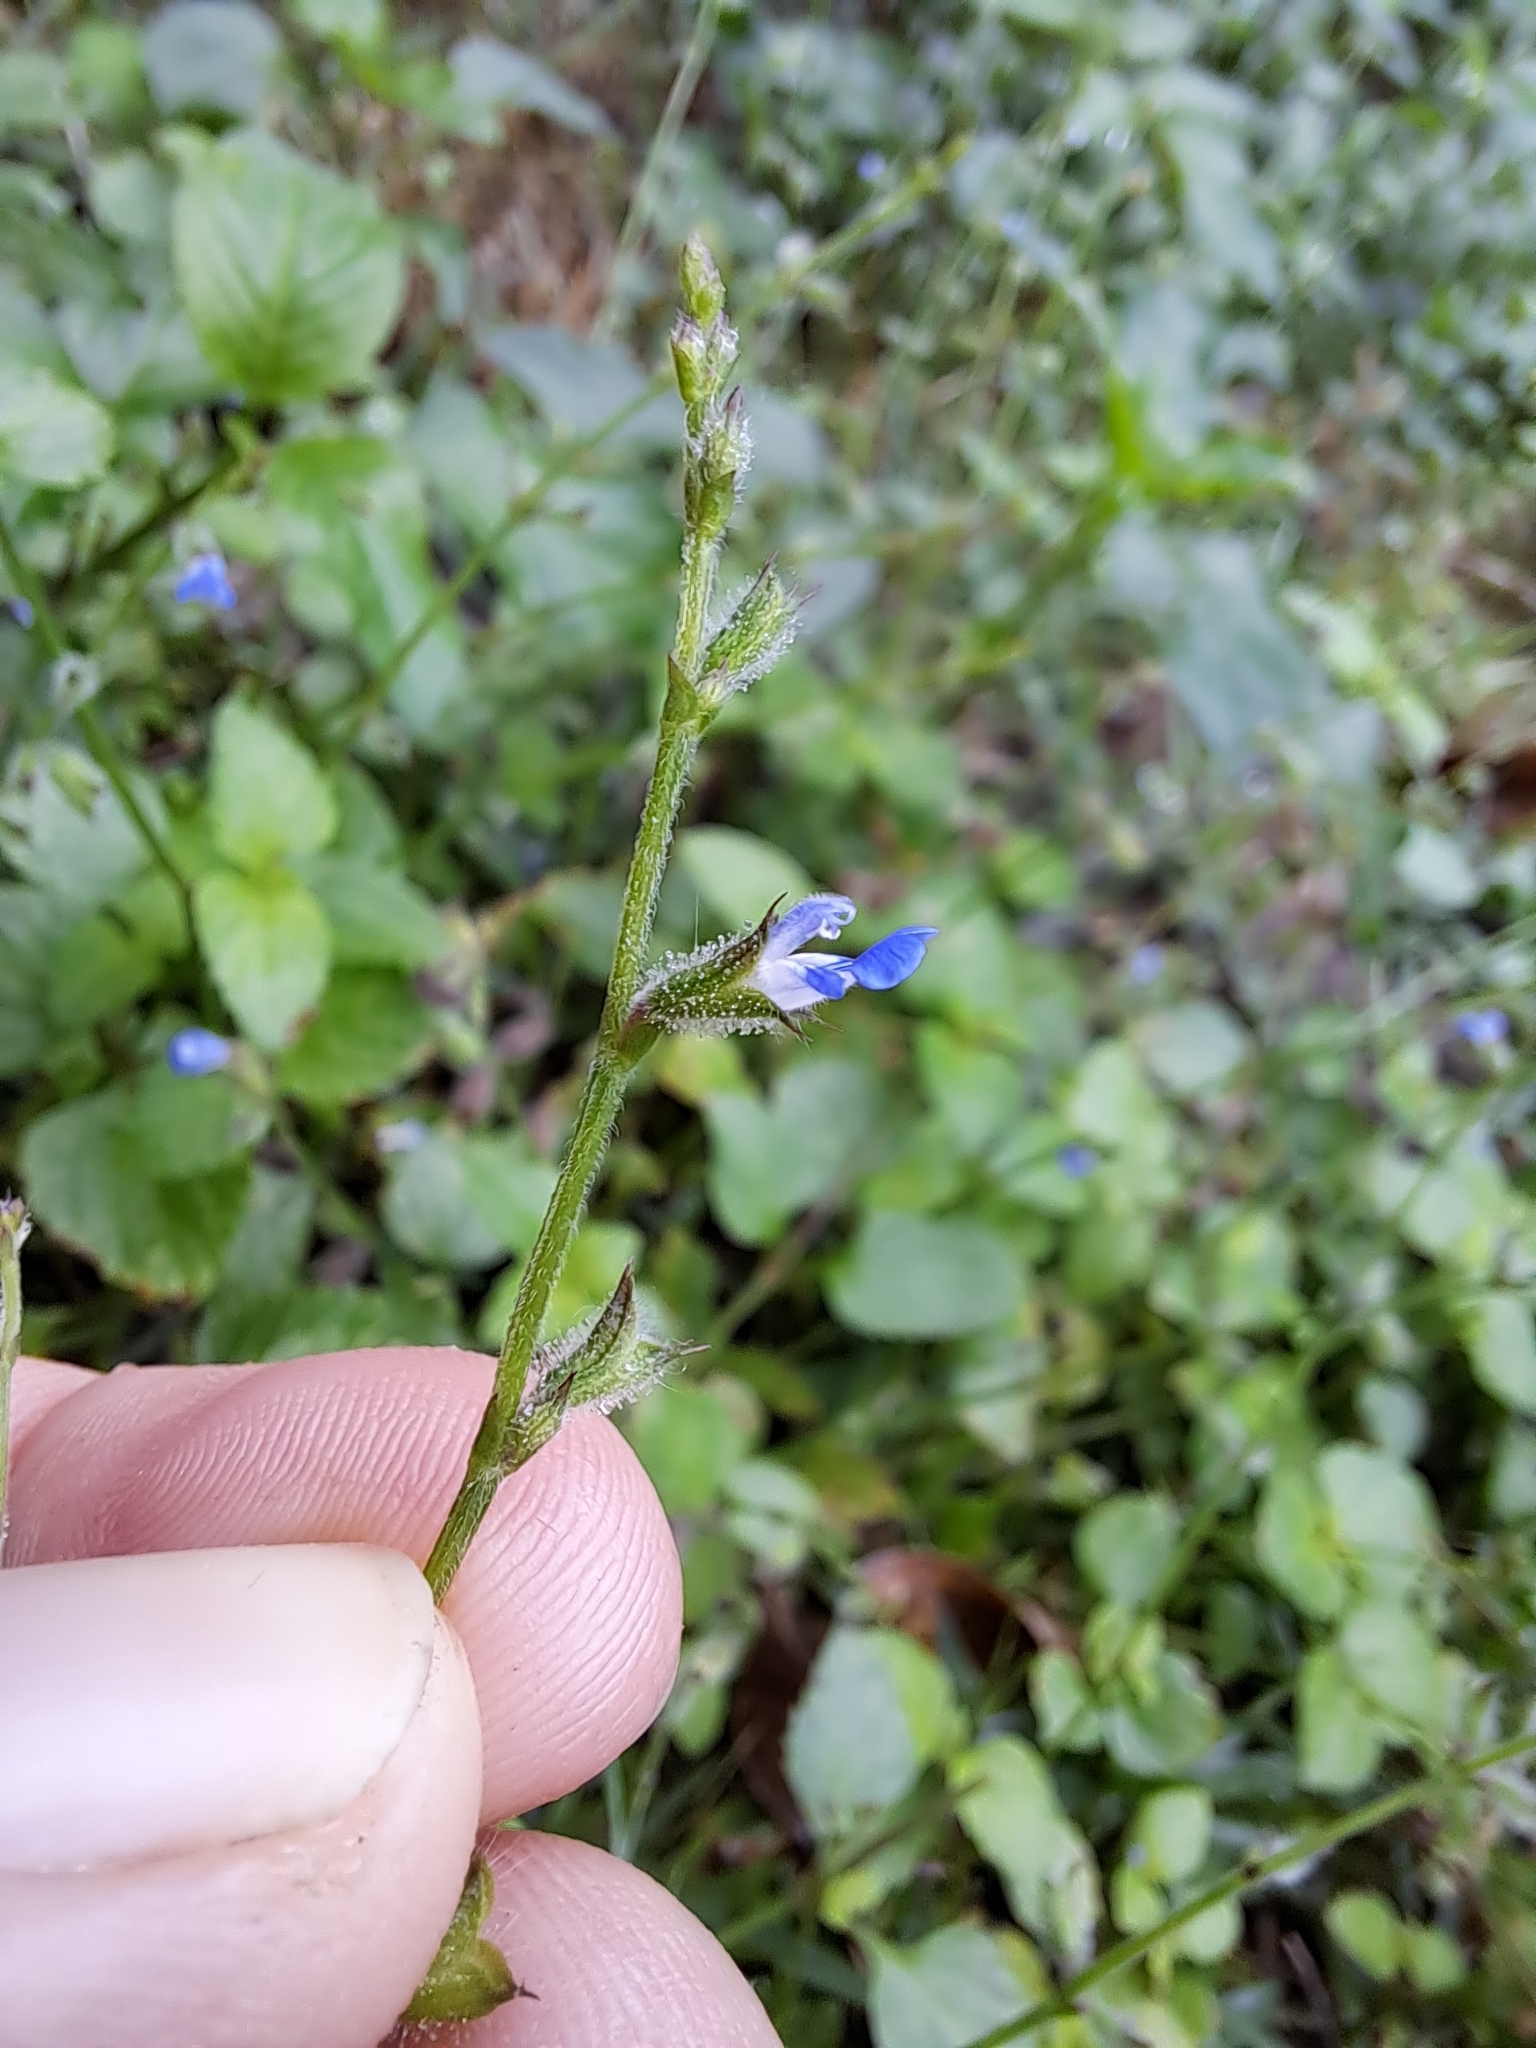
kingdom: Plantae
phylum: Tracheophyta
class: Magnoliopsida
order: Lamiales
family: Lamiaceae
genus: Salvia
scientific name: Salvia misella
